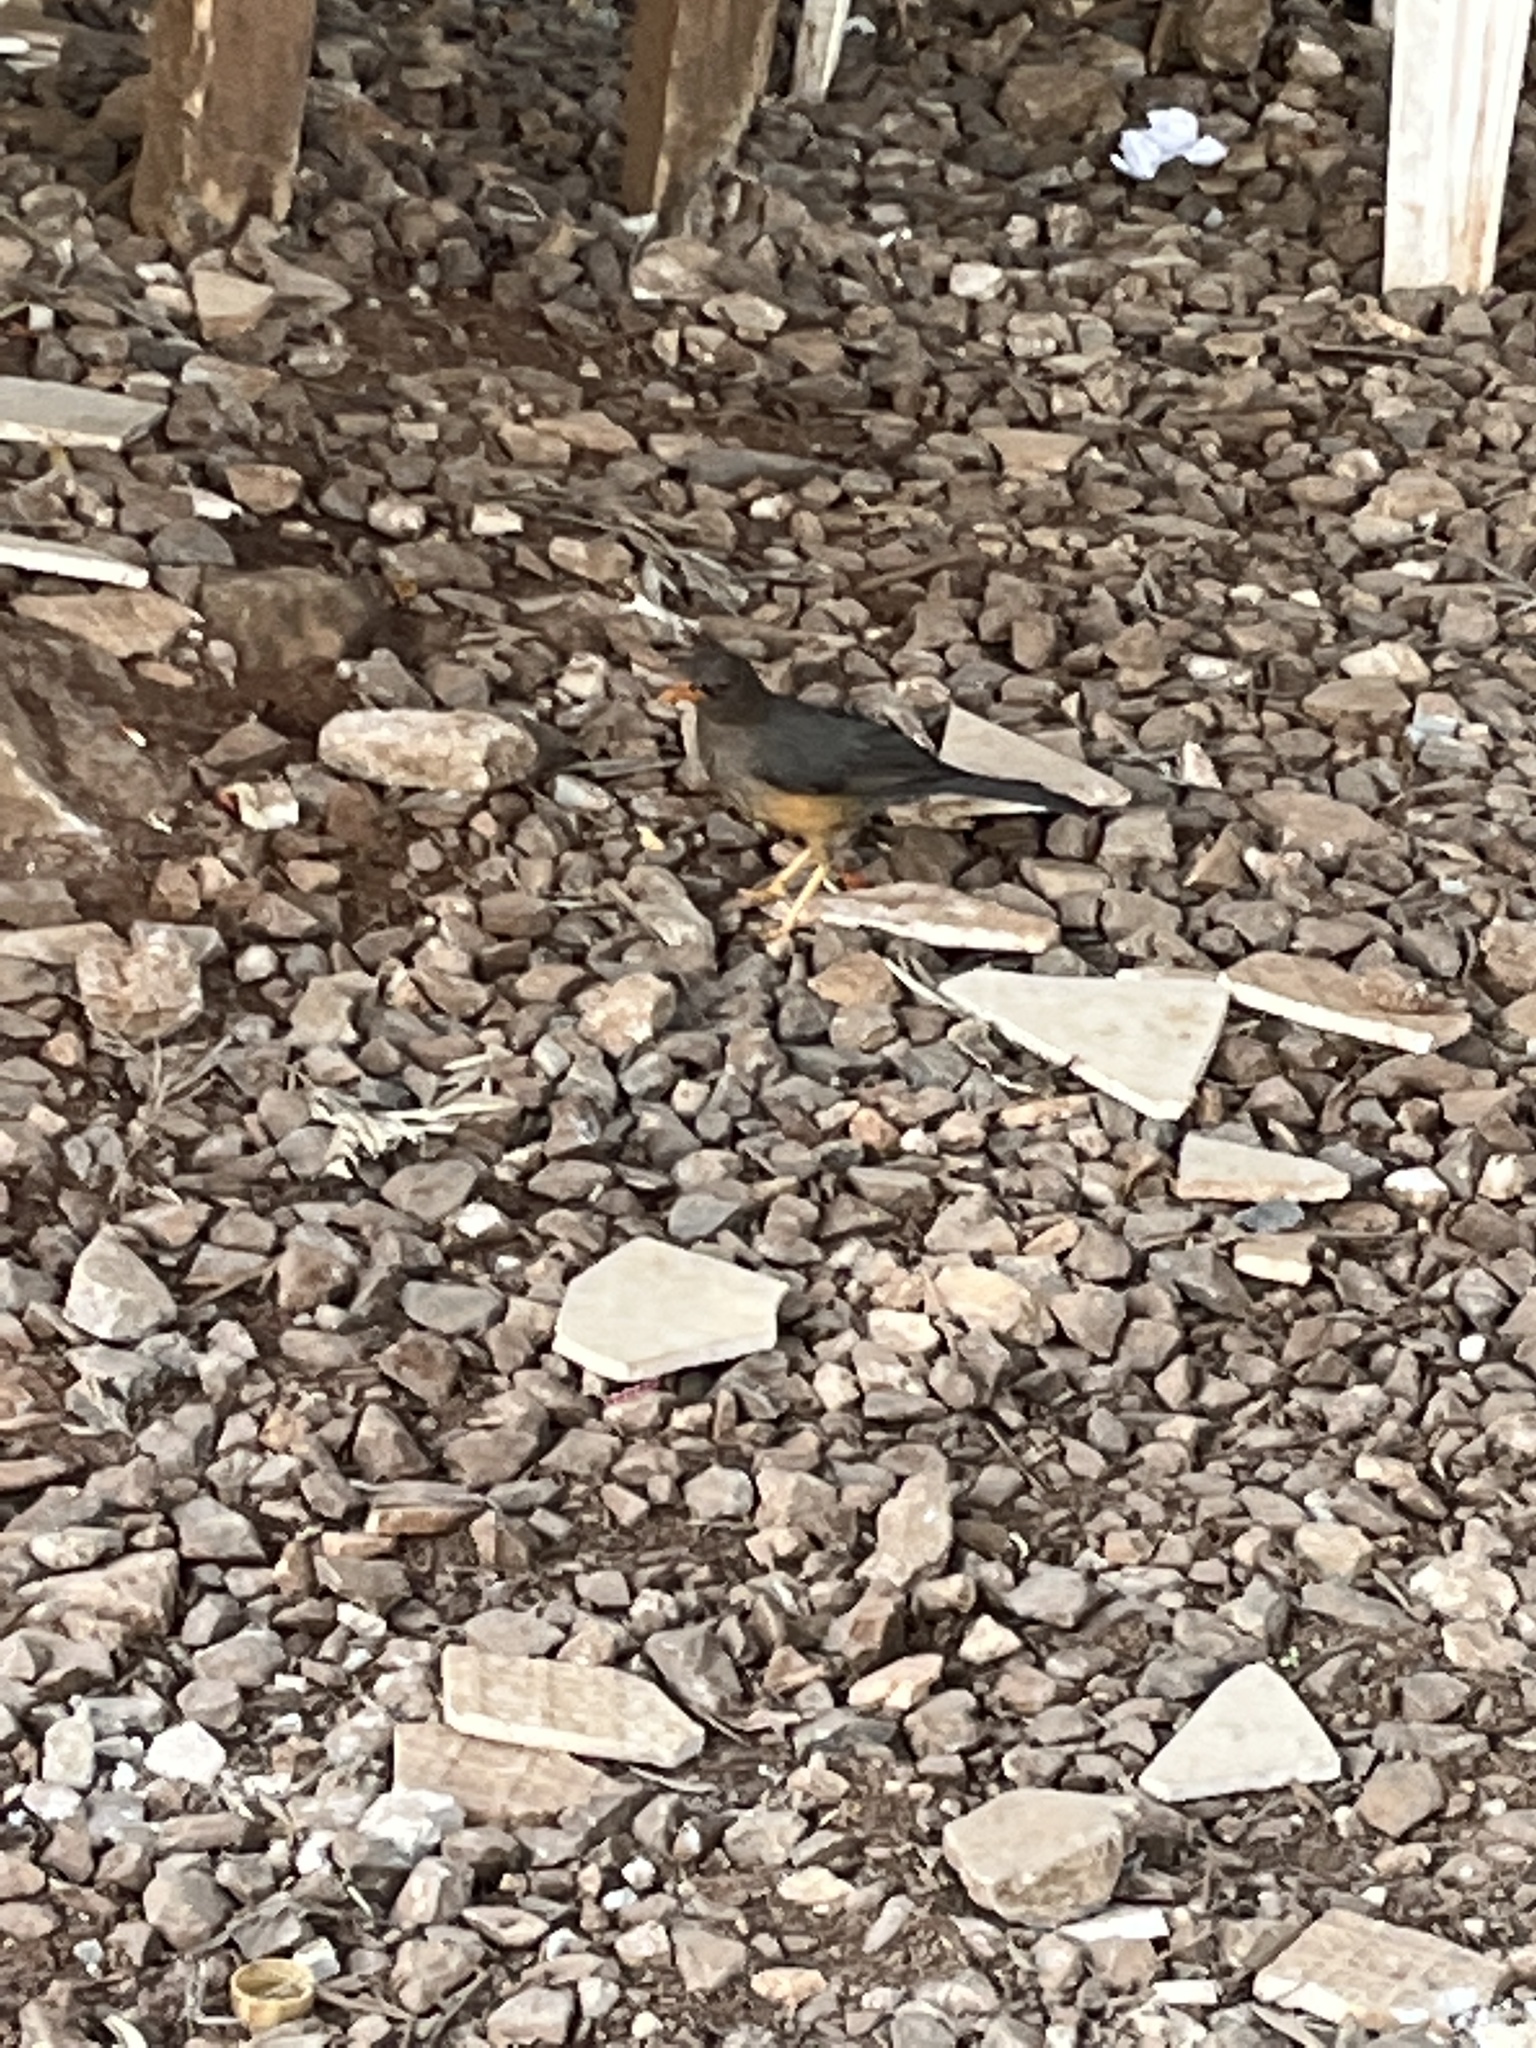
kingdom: Animalia
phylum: Chordata
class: Aves
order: Passeriformes
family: Turdidae
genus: Turdus
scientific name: Turdus abyssinicus
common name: Abyssinian thrush
